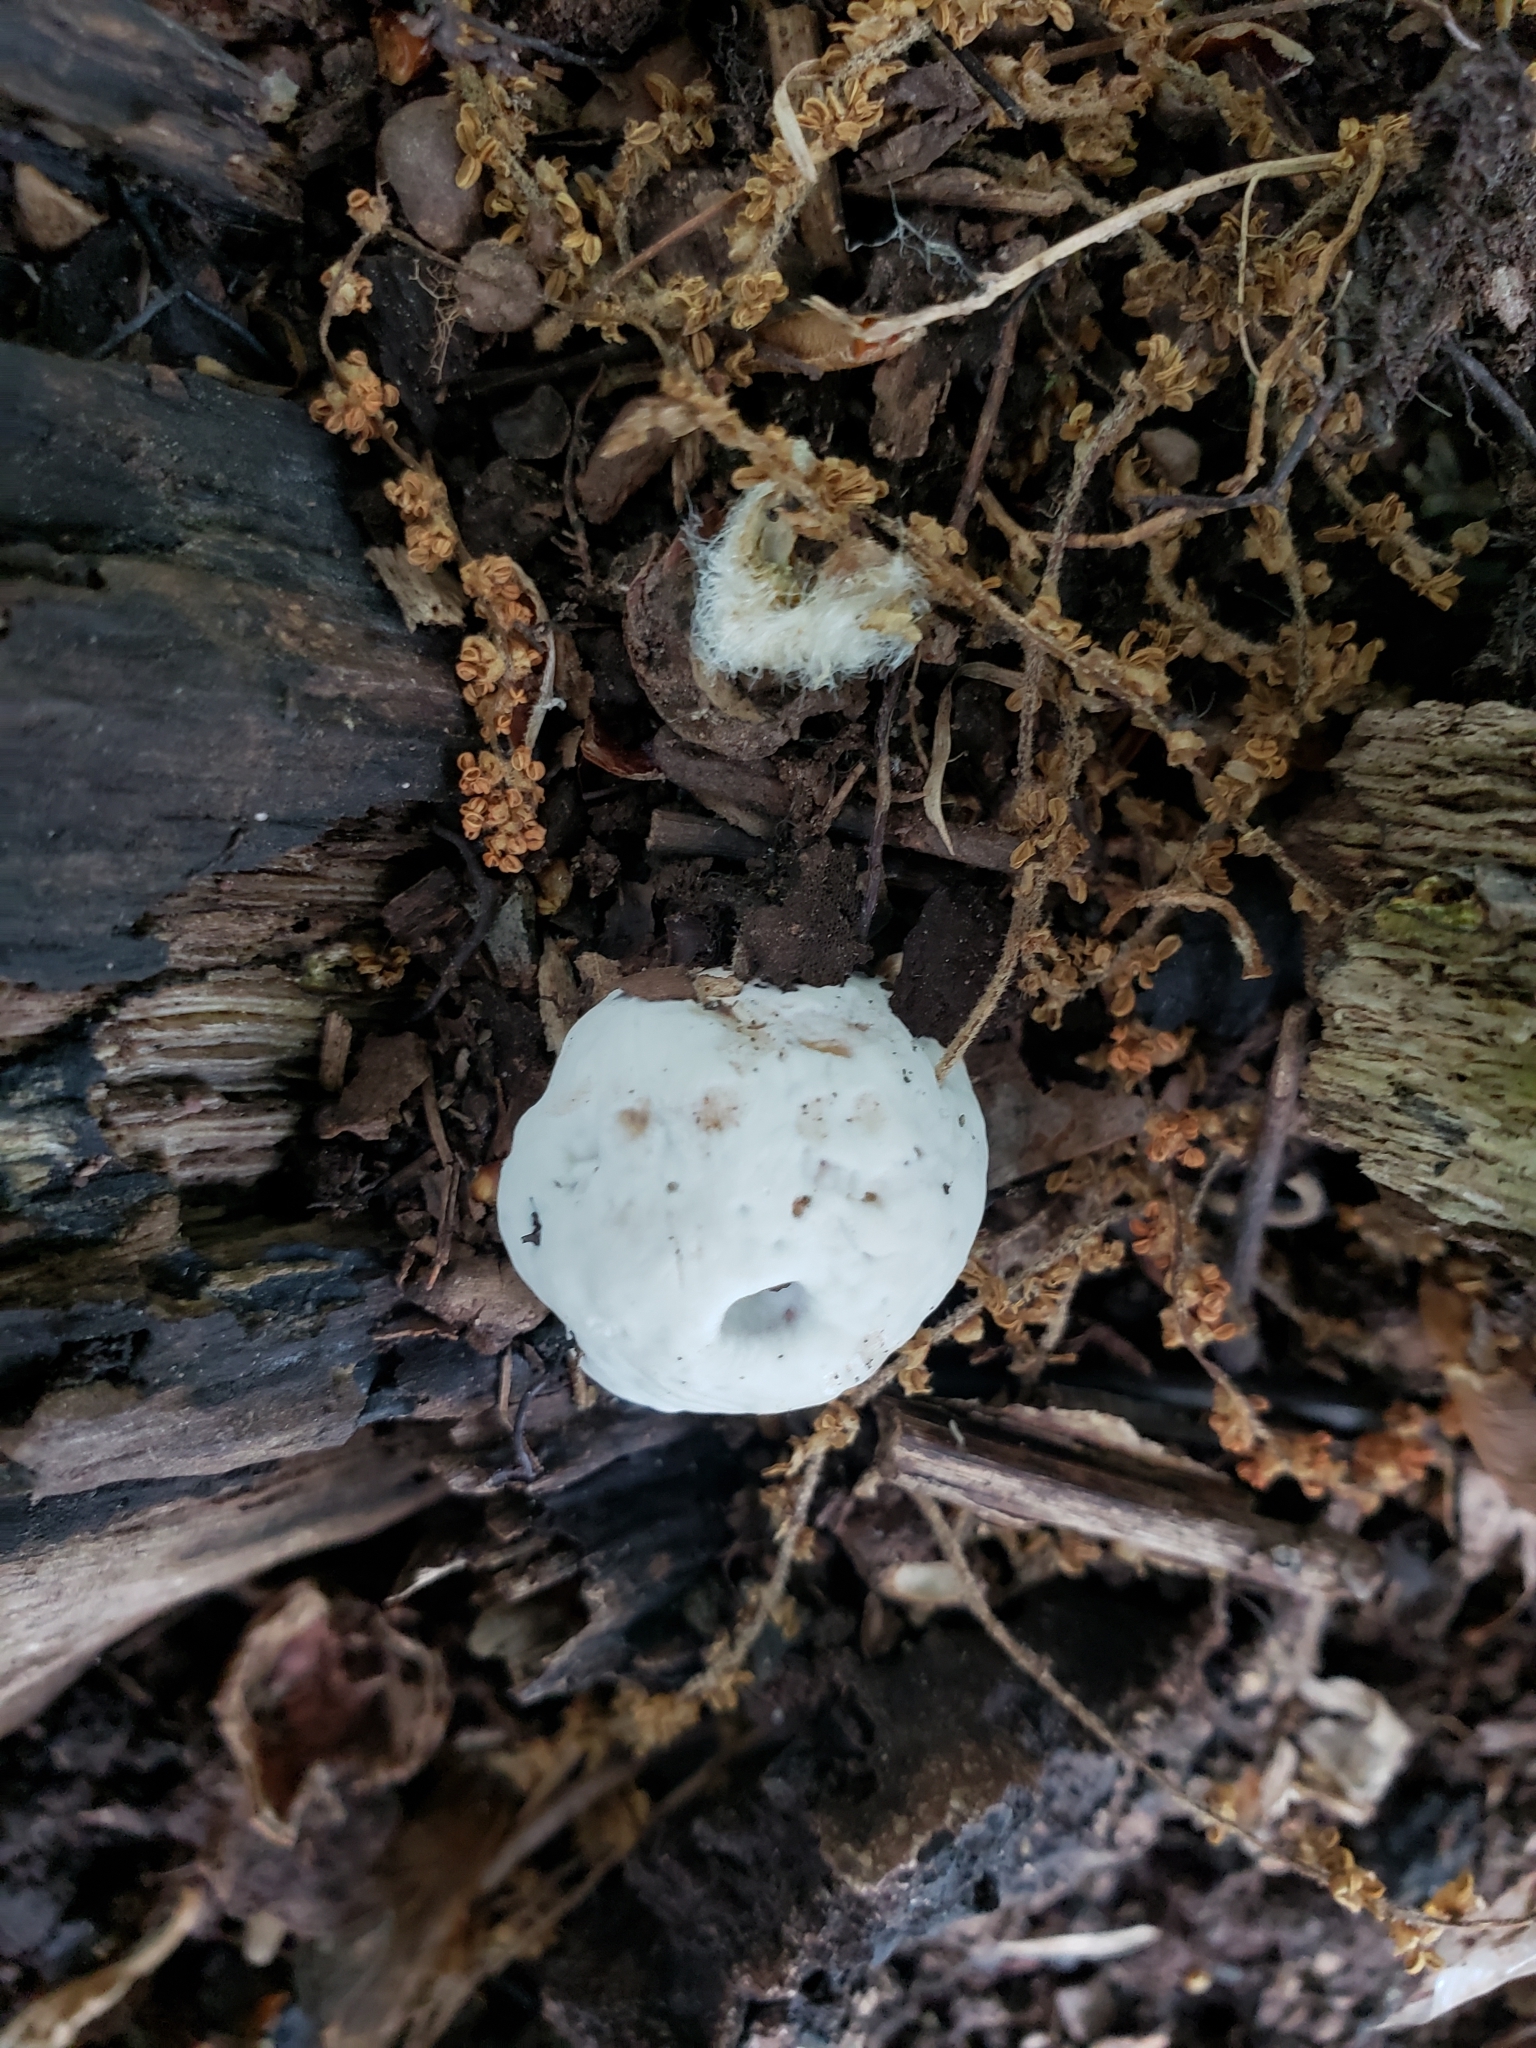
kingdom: Protozoa
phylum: Mycetozoa
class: Myxomycetes
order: Cribrariales
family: Tubiferaceae
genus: Reticularia
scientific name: Reticularia lycoperdon
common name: False puffball
